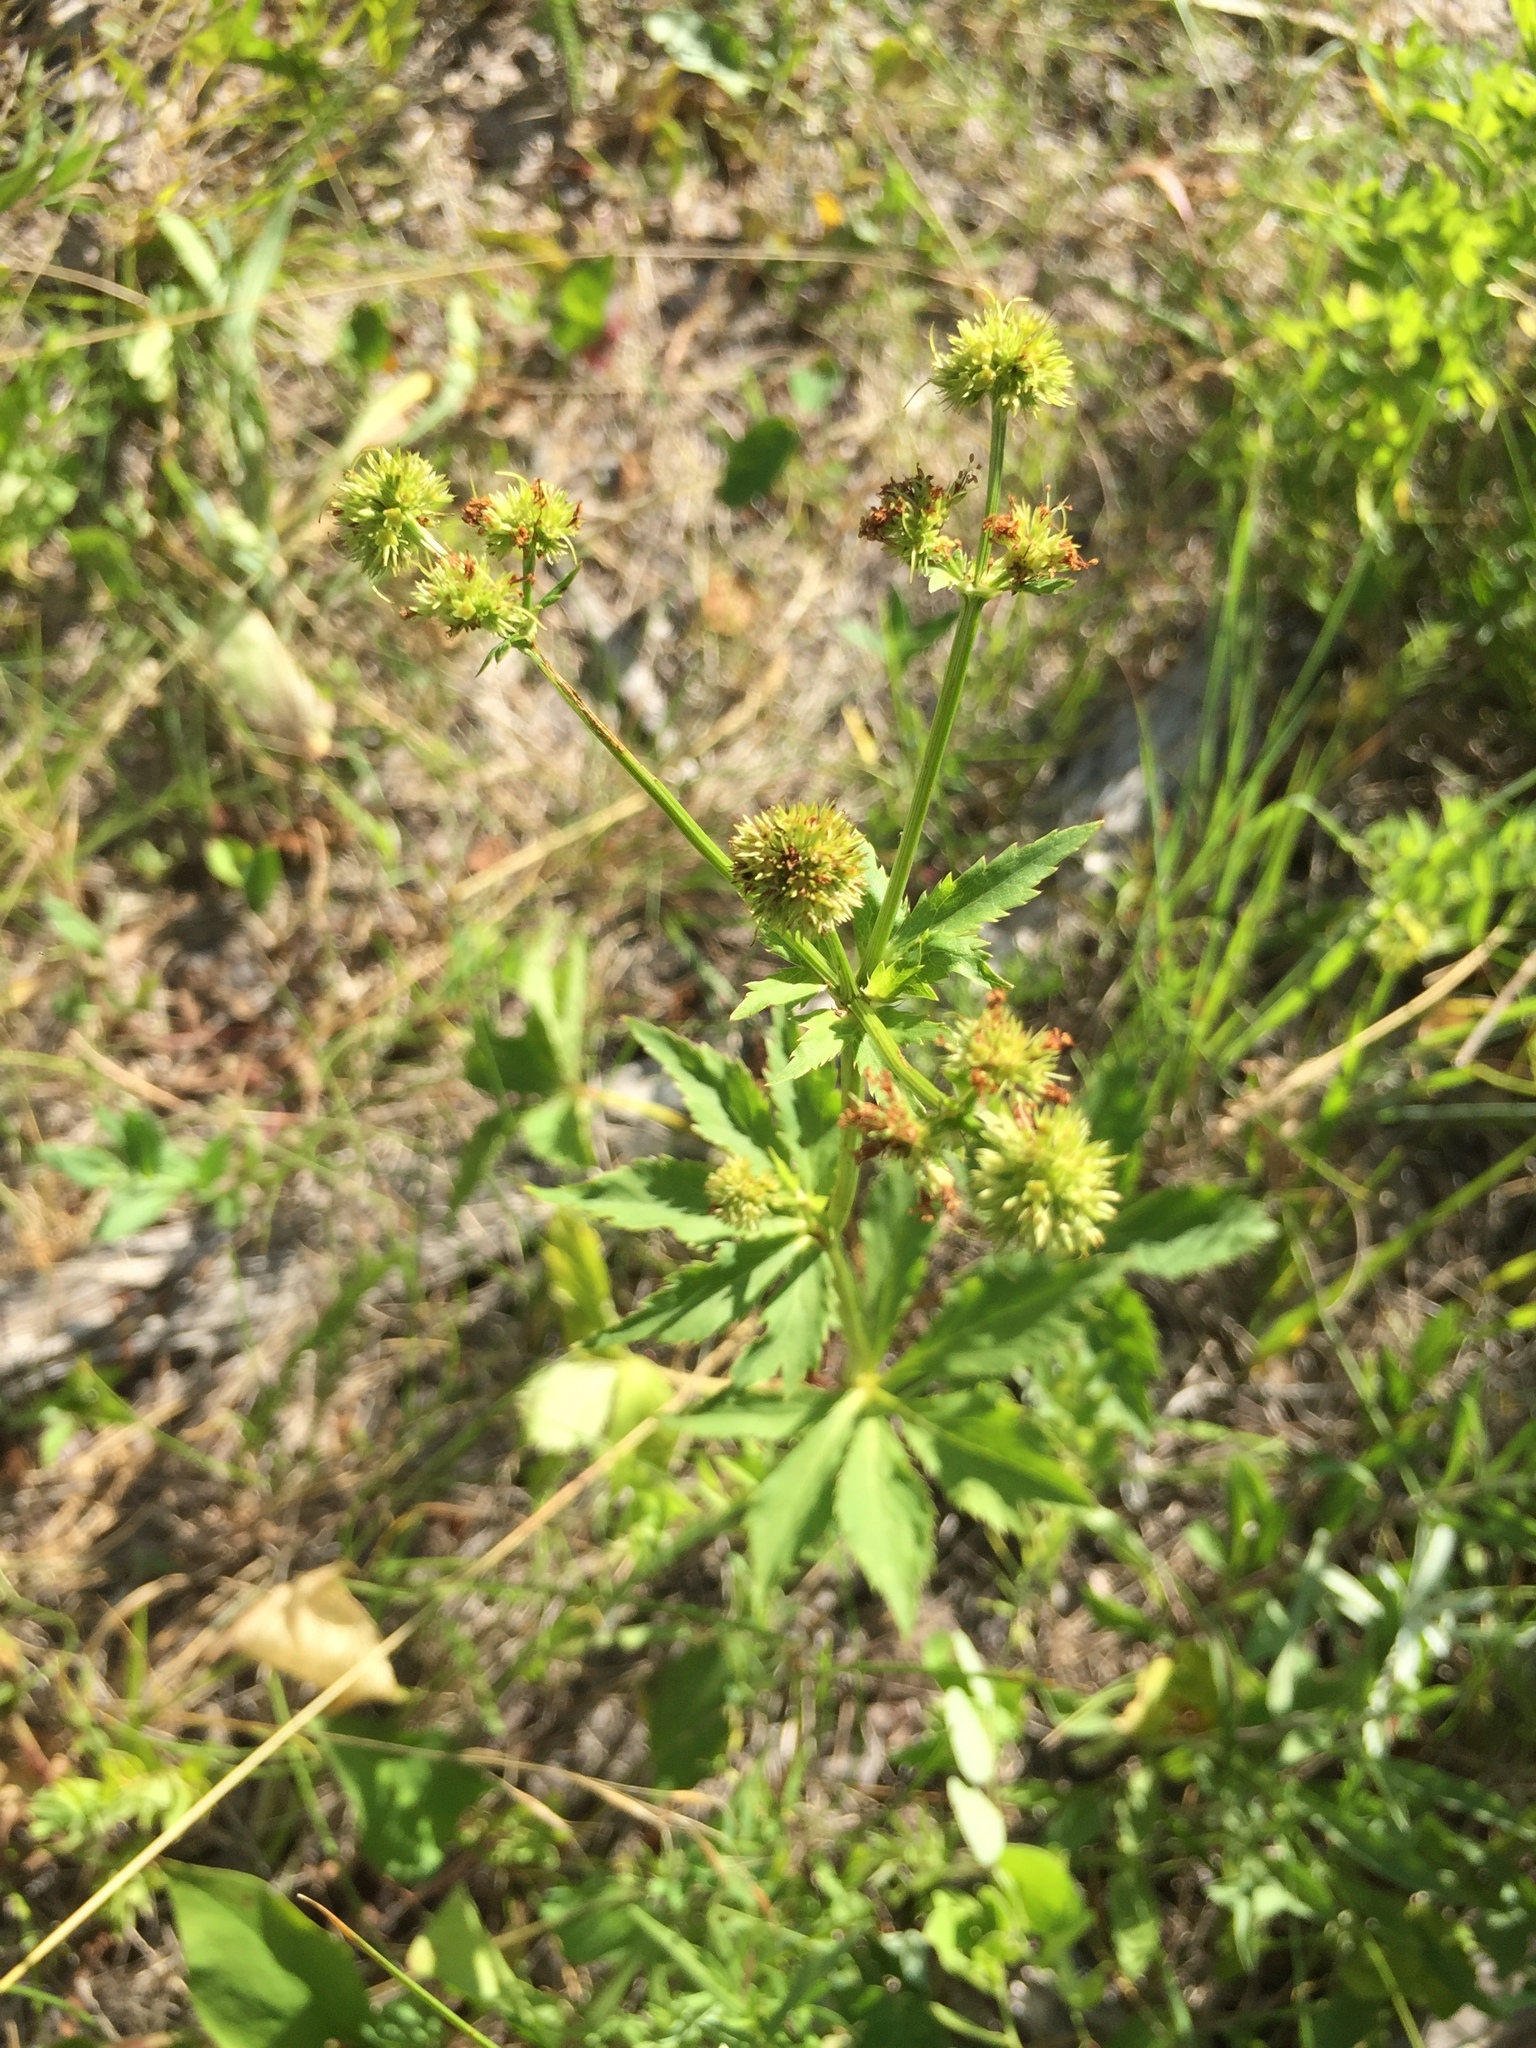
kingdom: Plantae
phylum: Tracheophyta
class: Magnoliopsida
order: Apiales
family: Apiaceae
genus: Sanicula
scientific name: Sanicula marilandica
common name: Black snakeroot
